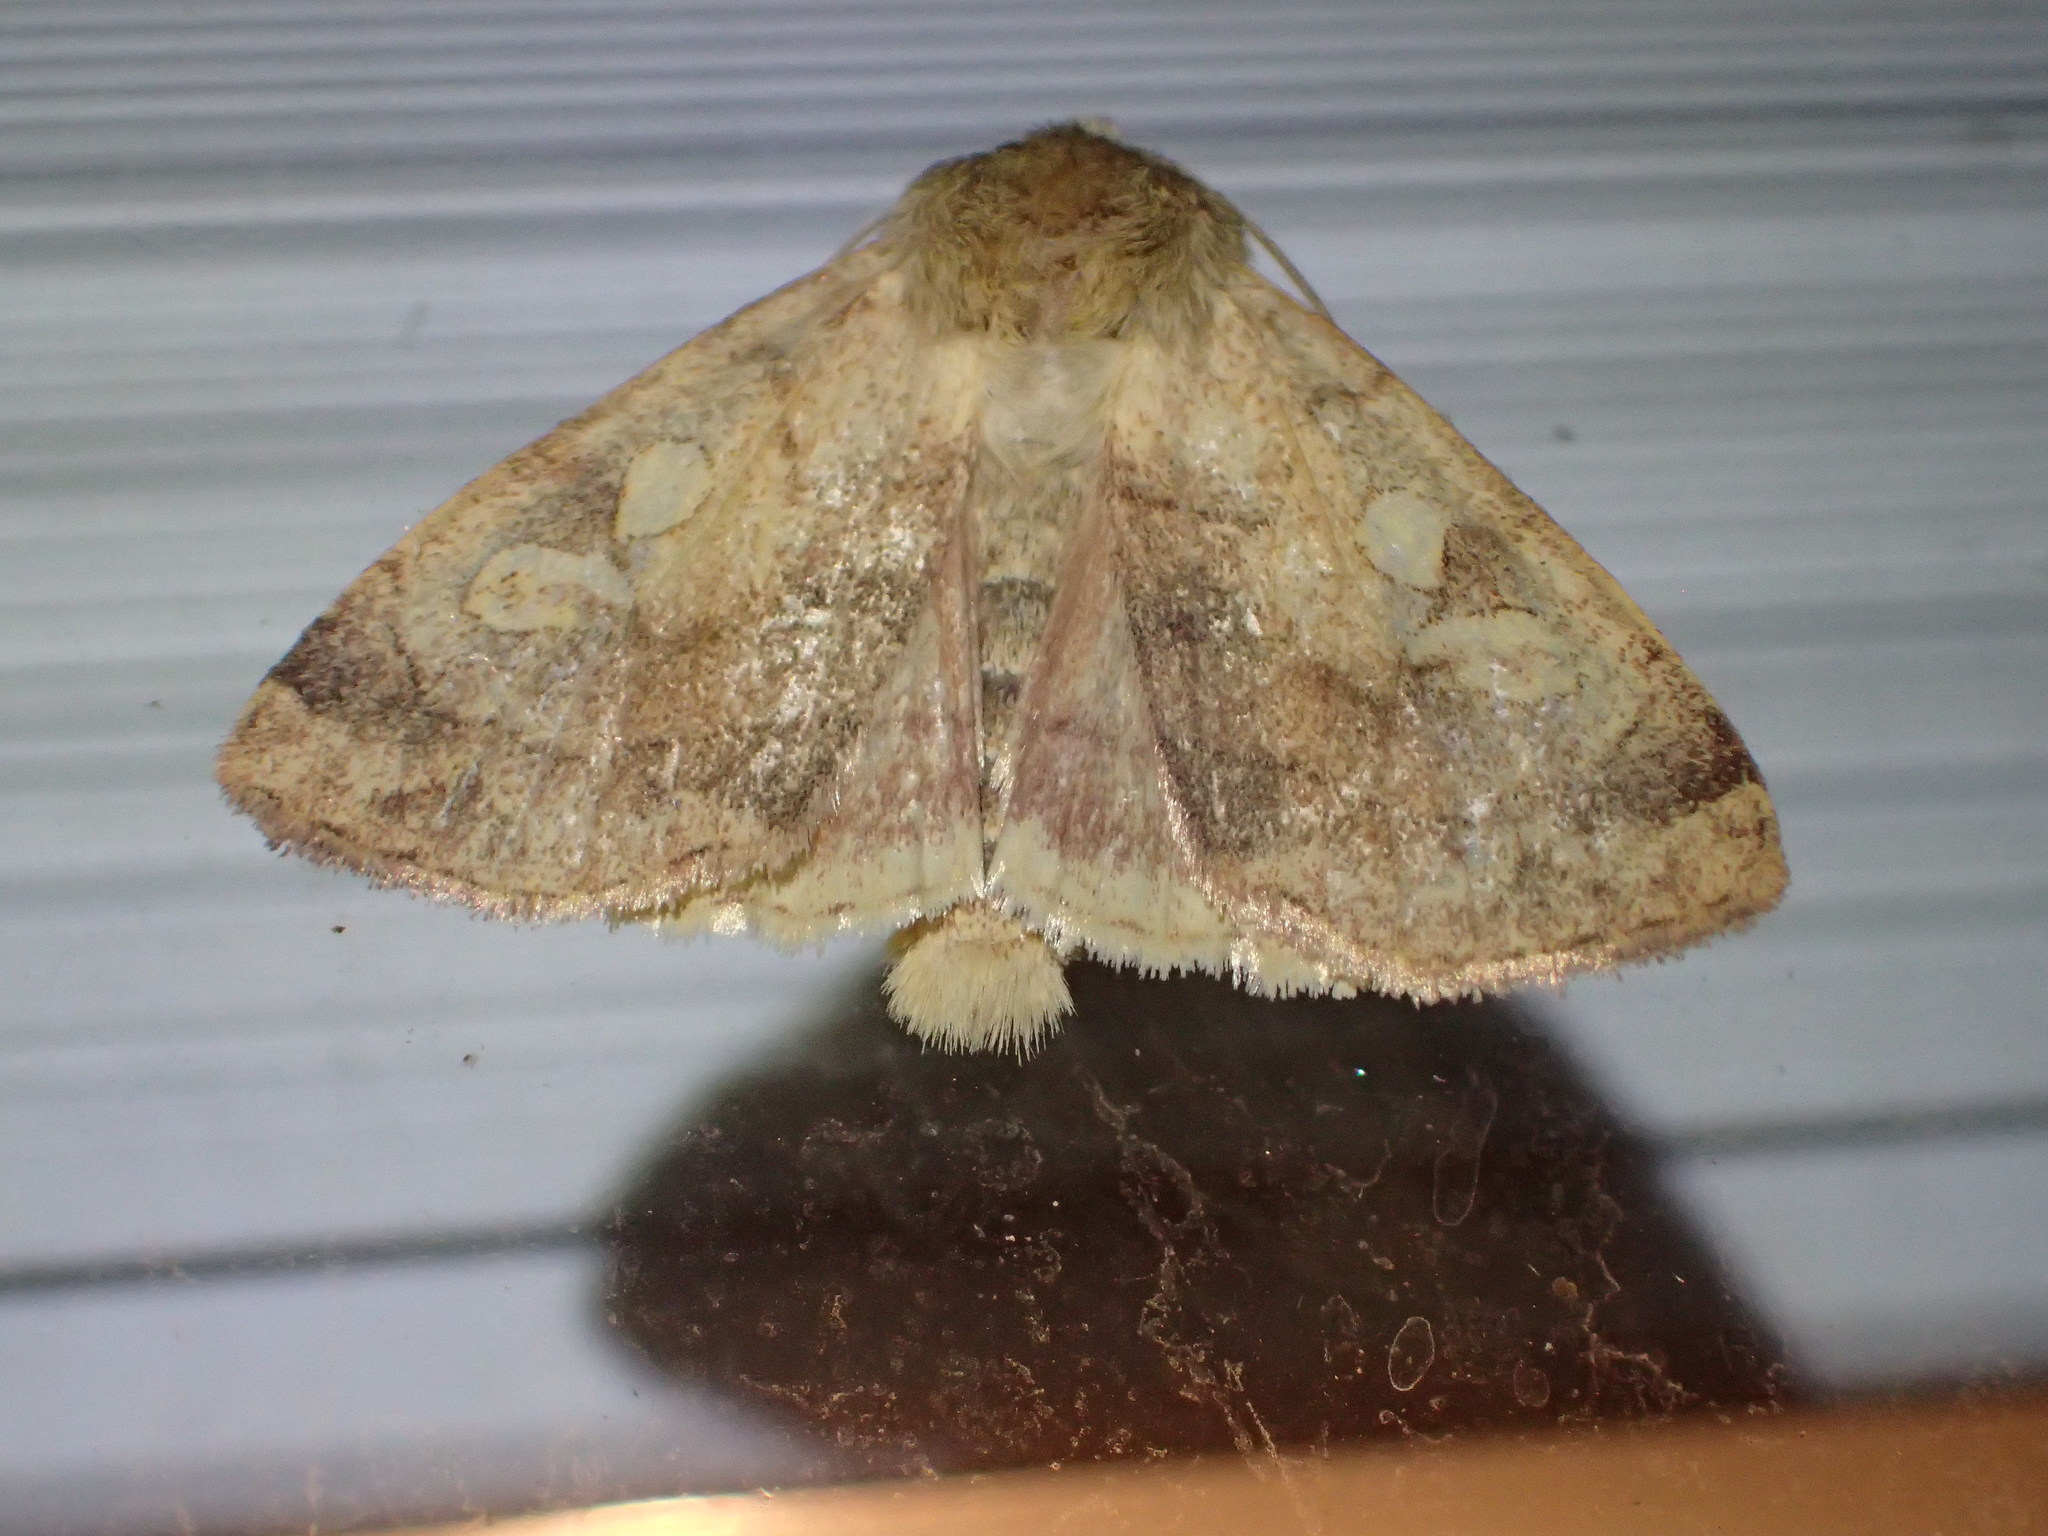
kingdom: Animalia
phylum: Arthropoda
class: Insecta
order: Lepidoptera
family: Noctuidae
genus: Enargia
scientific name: Enargia decolor
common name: Aspen twoleaf tier moth
